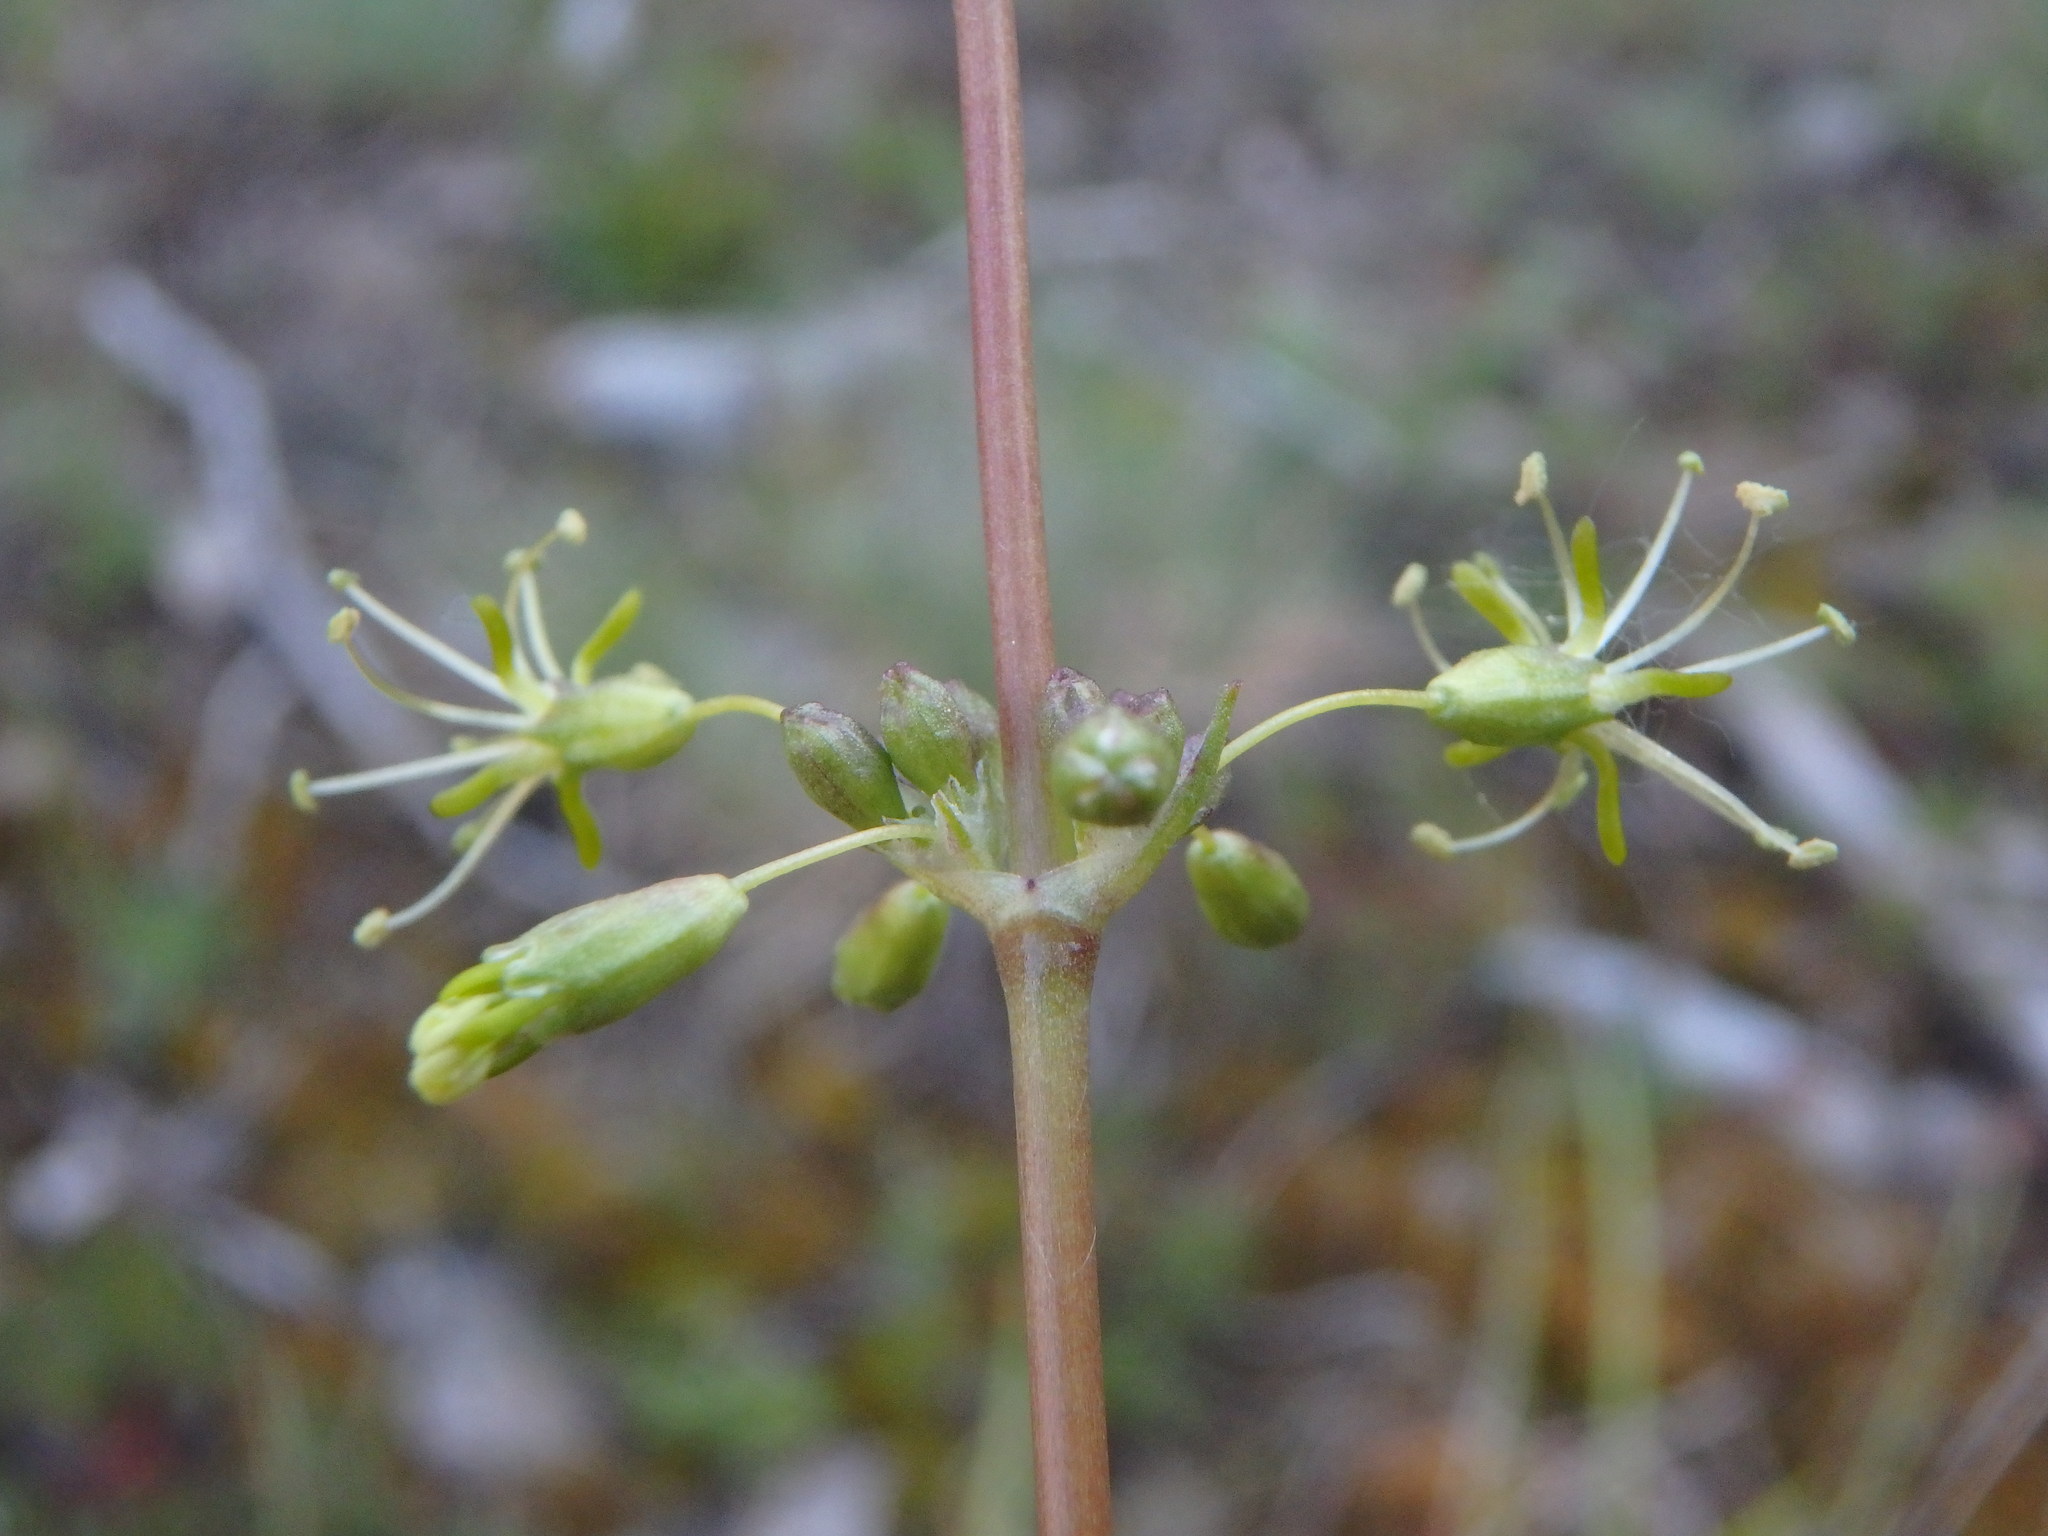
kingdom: Plantae
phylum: Tracheophyta
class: Magnoliopsida
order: Caryophyllales
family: Caryophyllaceae
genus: Silene
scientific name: Silene otites
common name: Spanish catchfly
